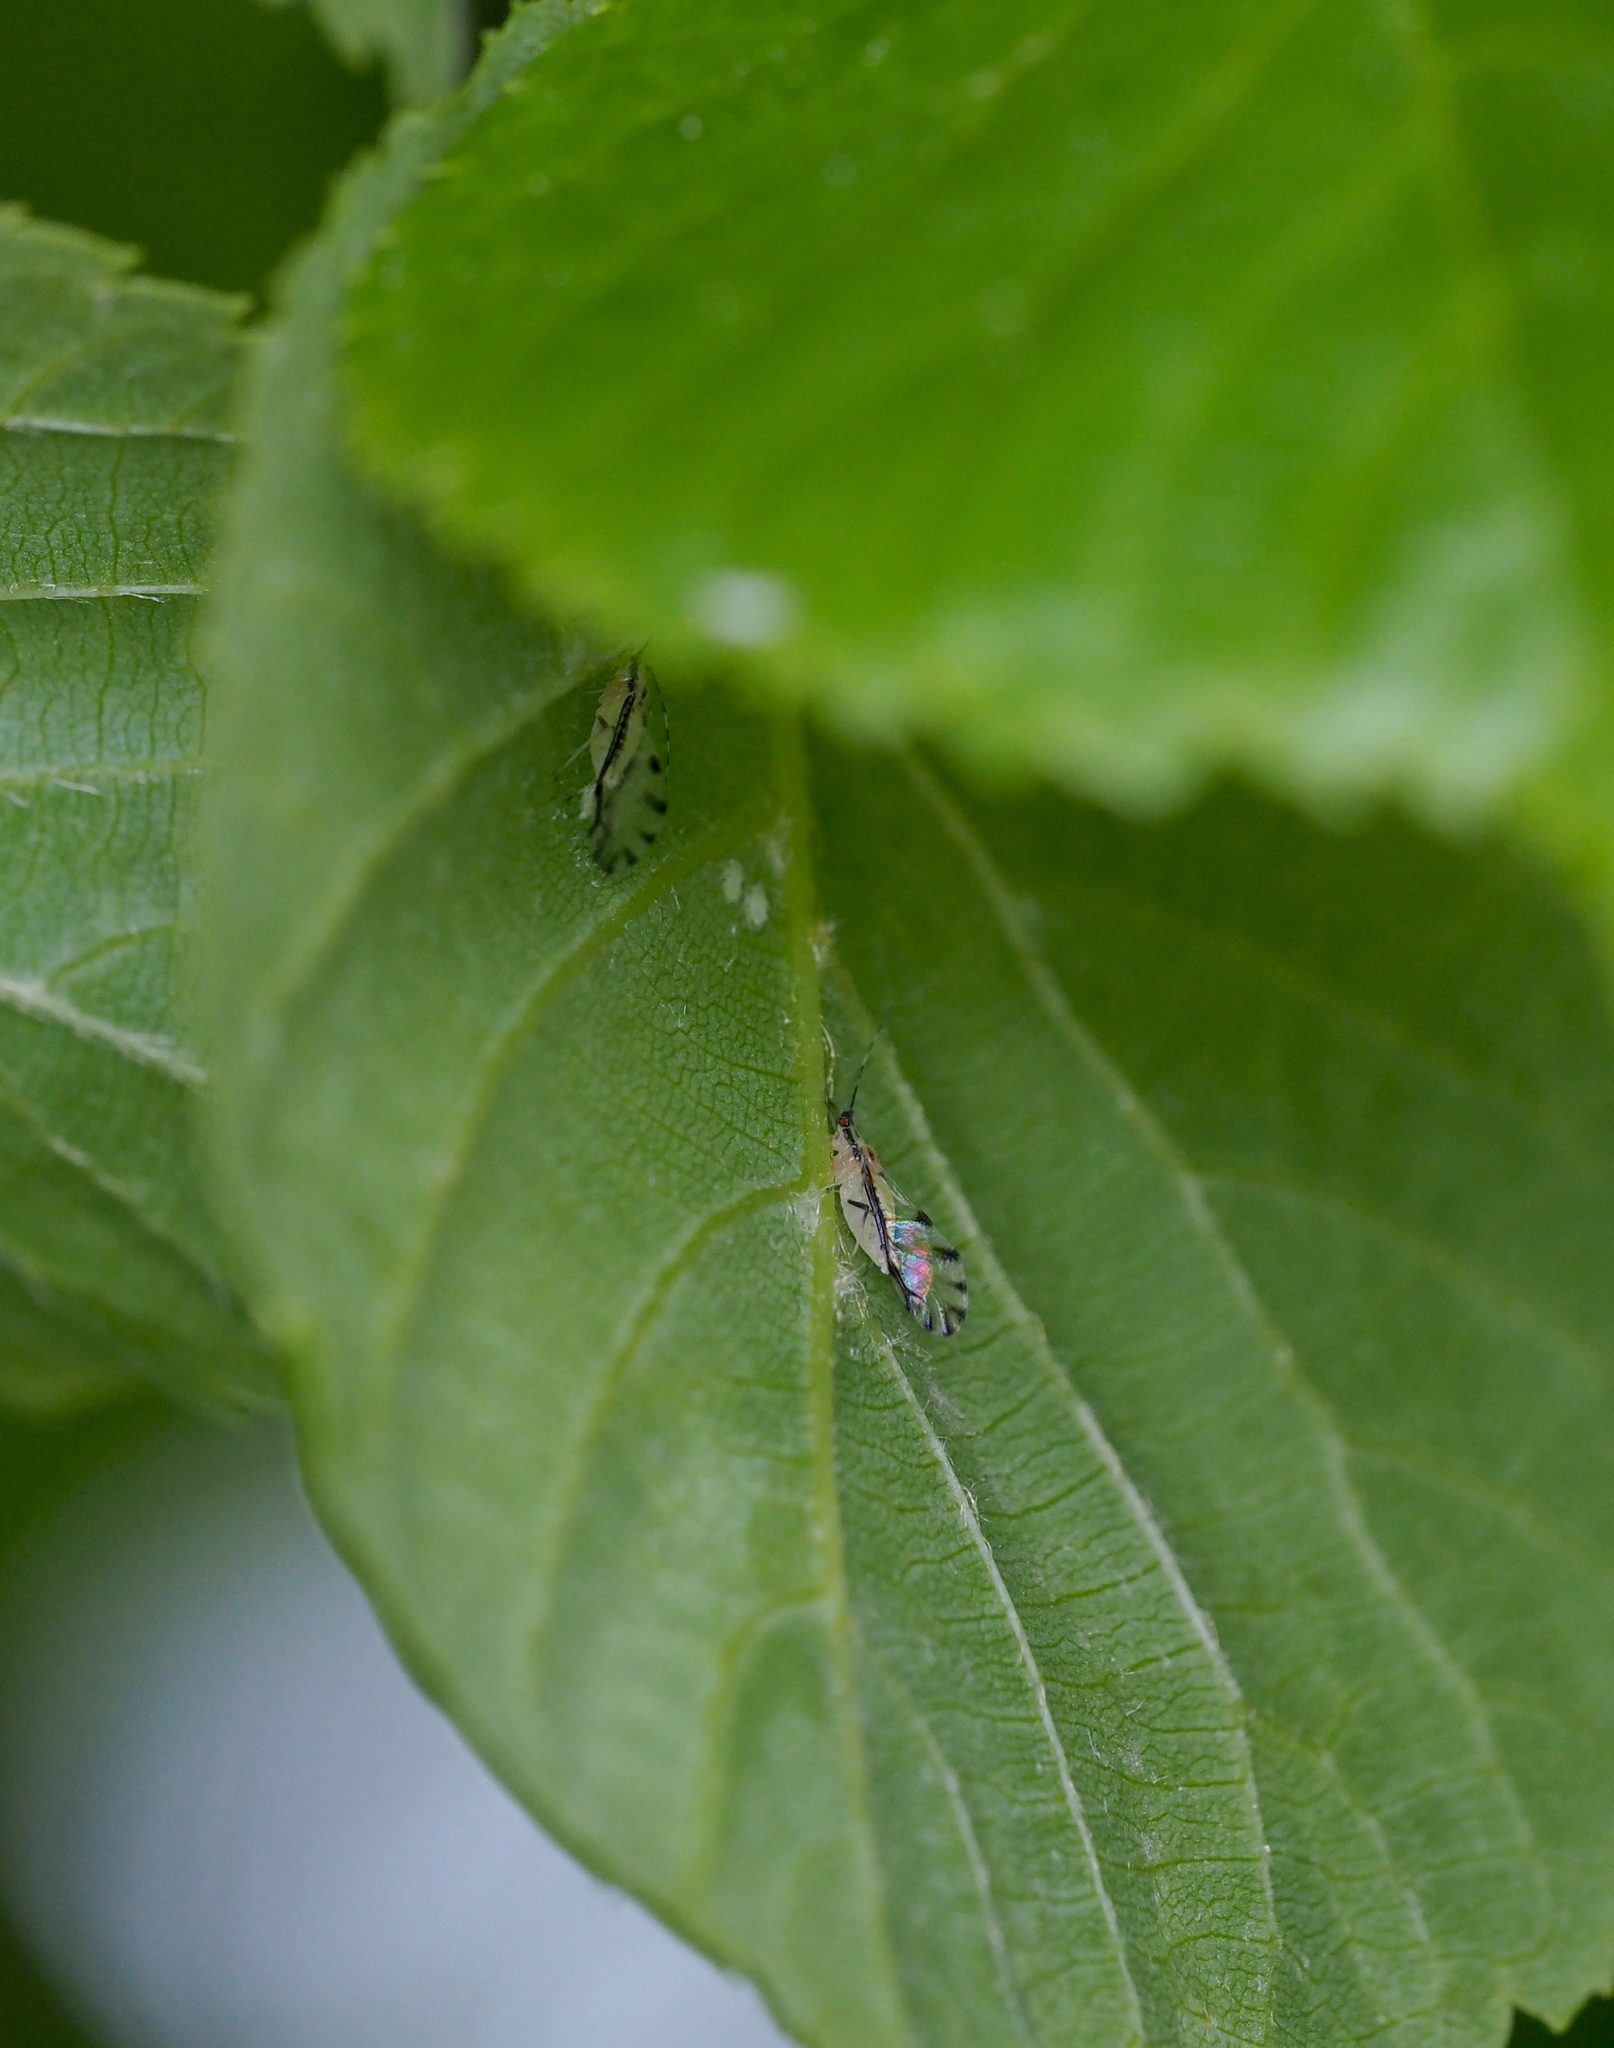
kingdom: Animalia
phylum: Arthropoda
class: Insecta
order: Hemiptera
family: Aphididae
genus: Eucallipterus
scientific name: Eucallipterus tiliae
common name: Aphid
